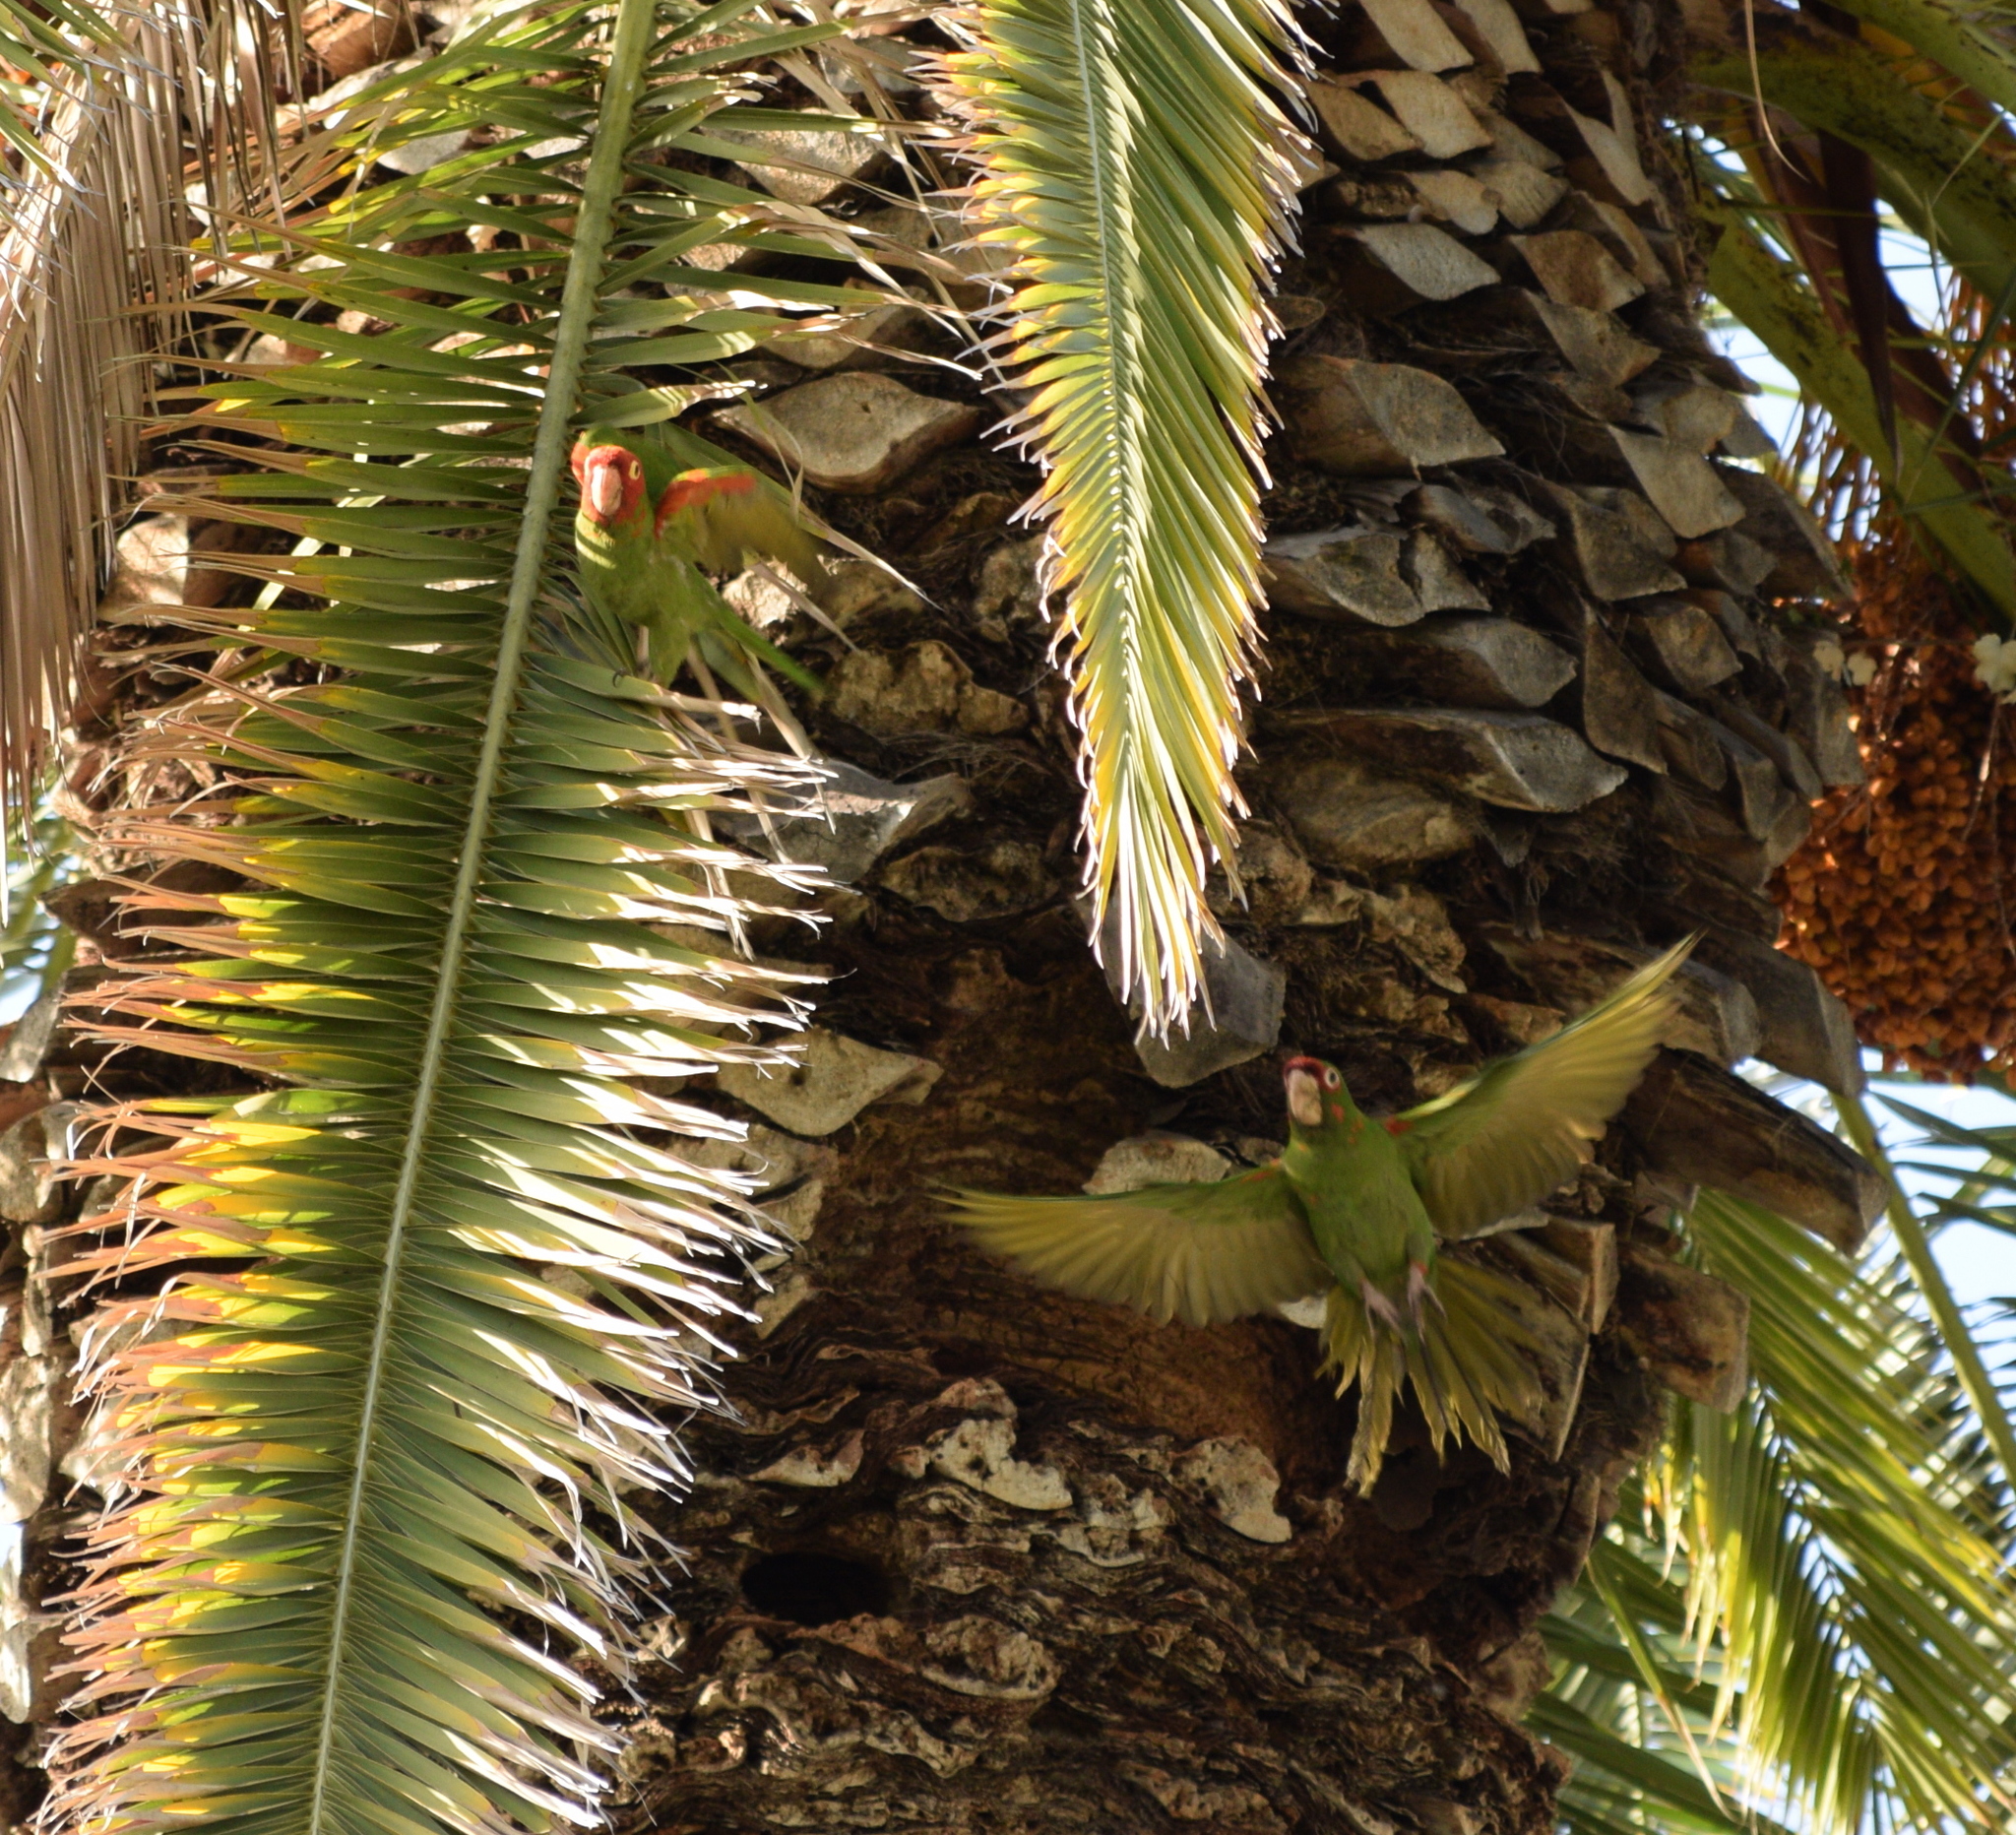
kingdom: Animalia
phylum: Chordata
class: Aves
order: Psittaciformes
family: Psittacidae
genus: Psittacara
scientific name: Psittacara
